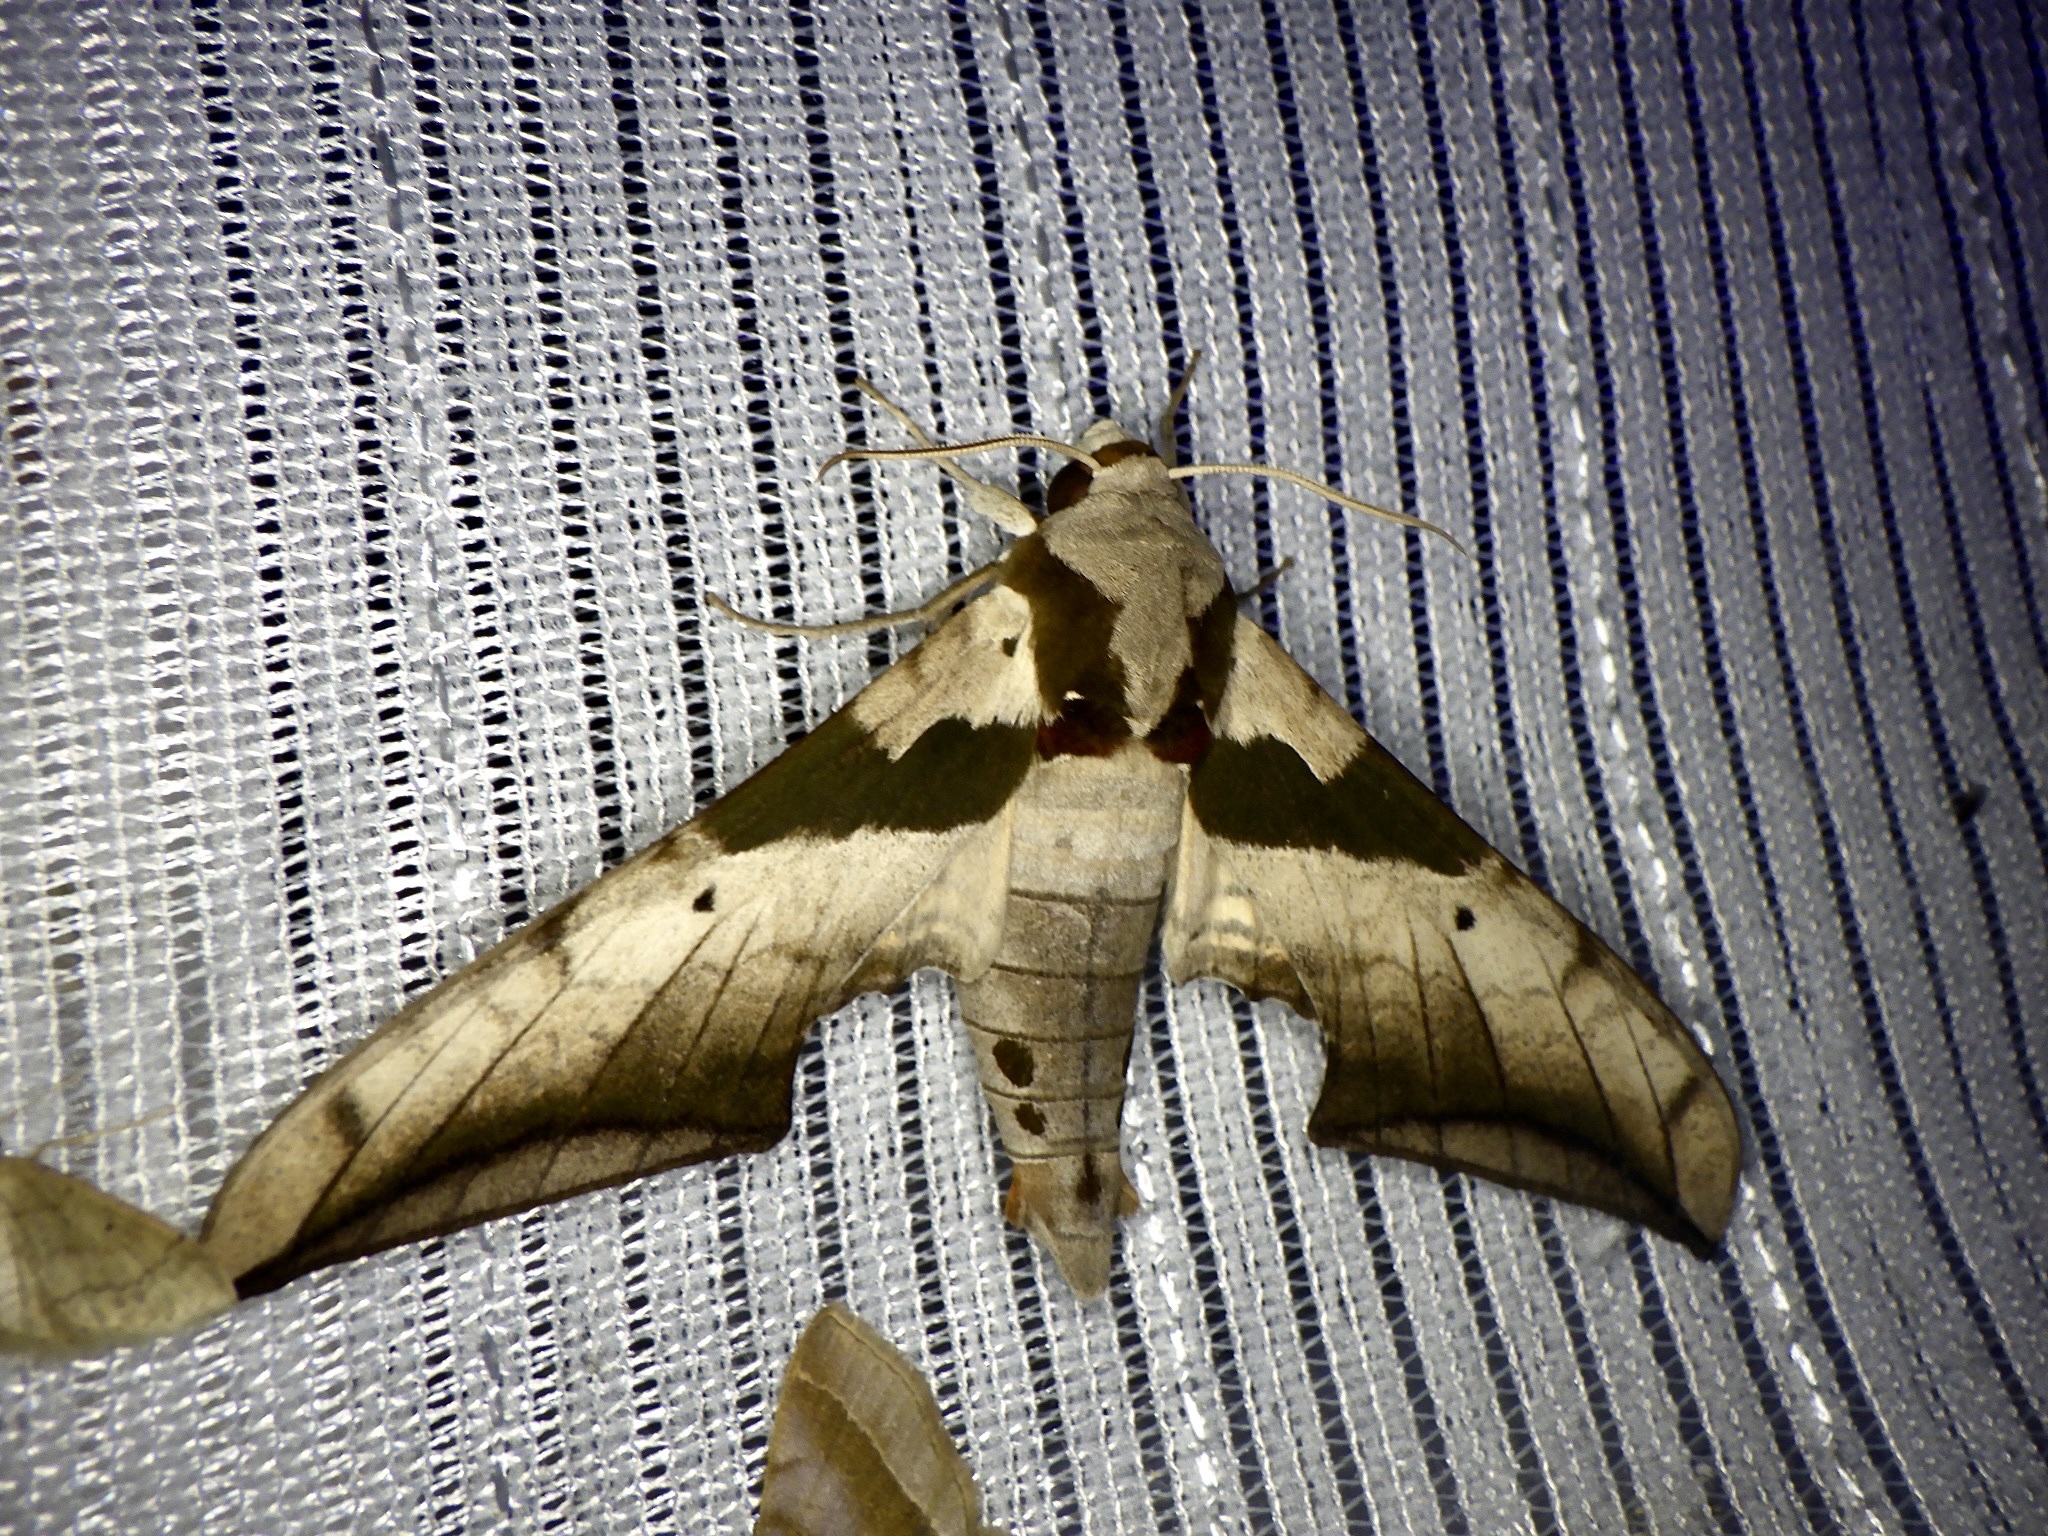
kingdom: Animalia
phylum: Arthropoda
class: Insecta
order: Lepidoptera
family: Sphingidae
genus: Ambulyx
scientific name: Ambulyx japonica
